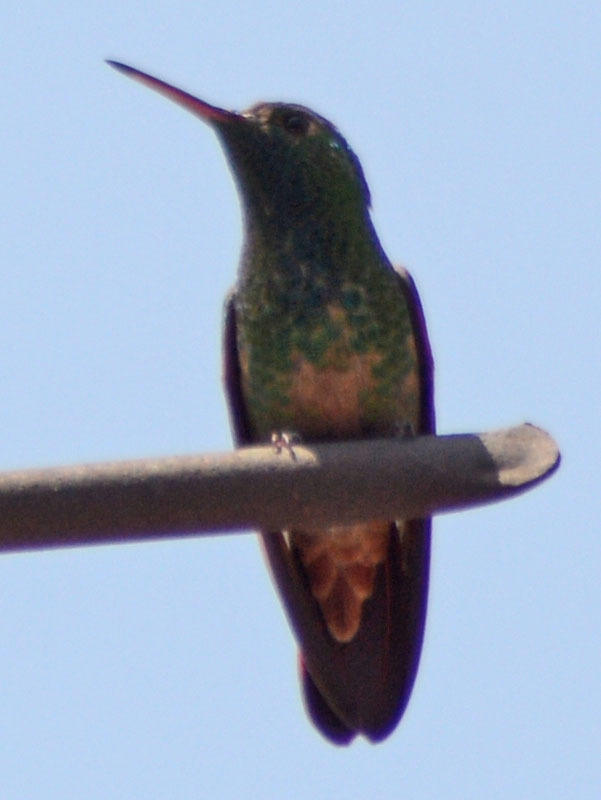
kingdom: Animalia
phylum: Chordata
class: Aves
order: Apodiformes
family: Trochilidae
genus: Saucerottia
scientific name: Saucerottia beryllina
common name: Berylline hummingbird
